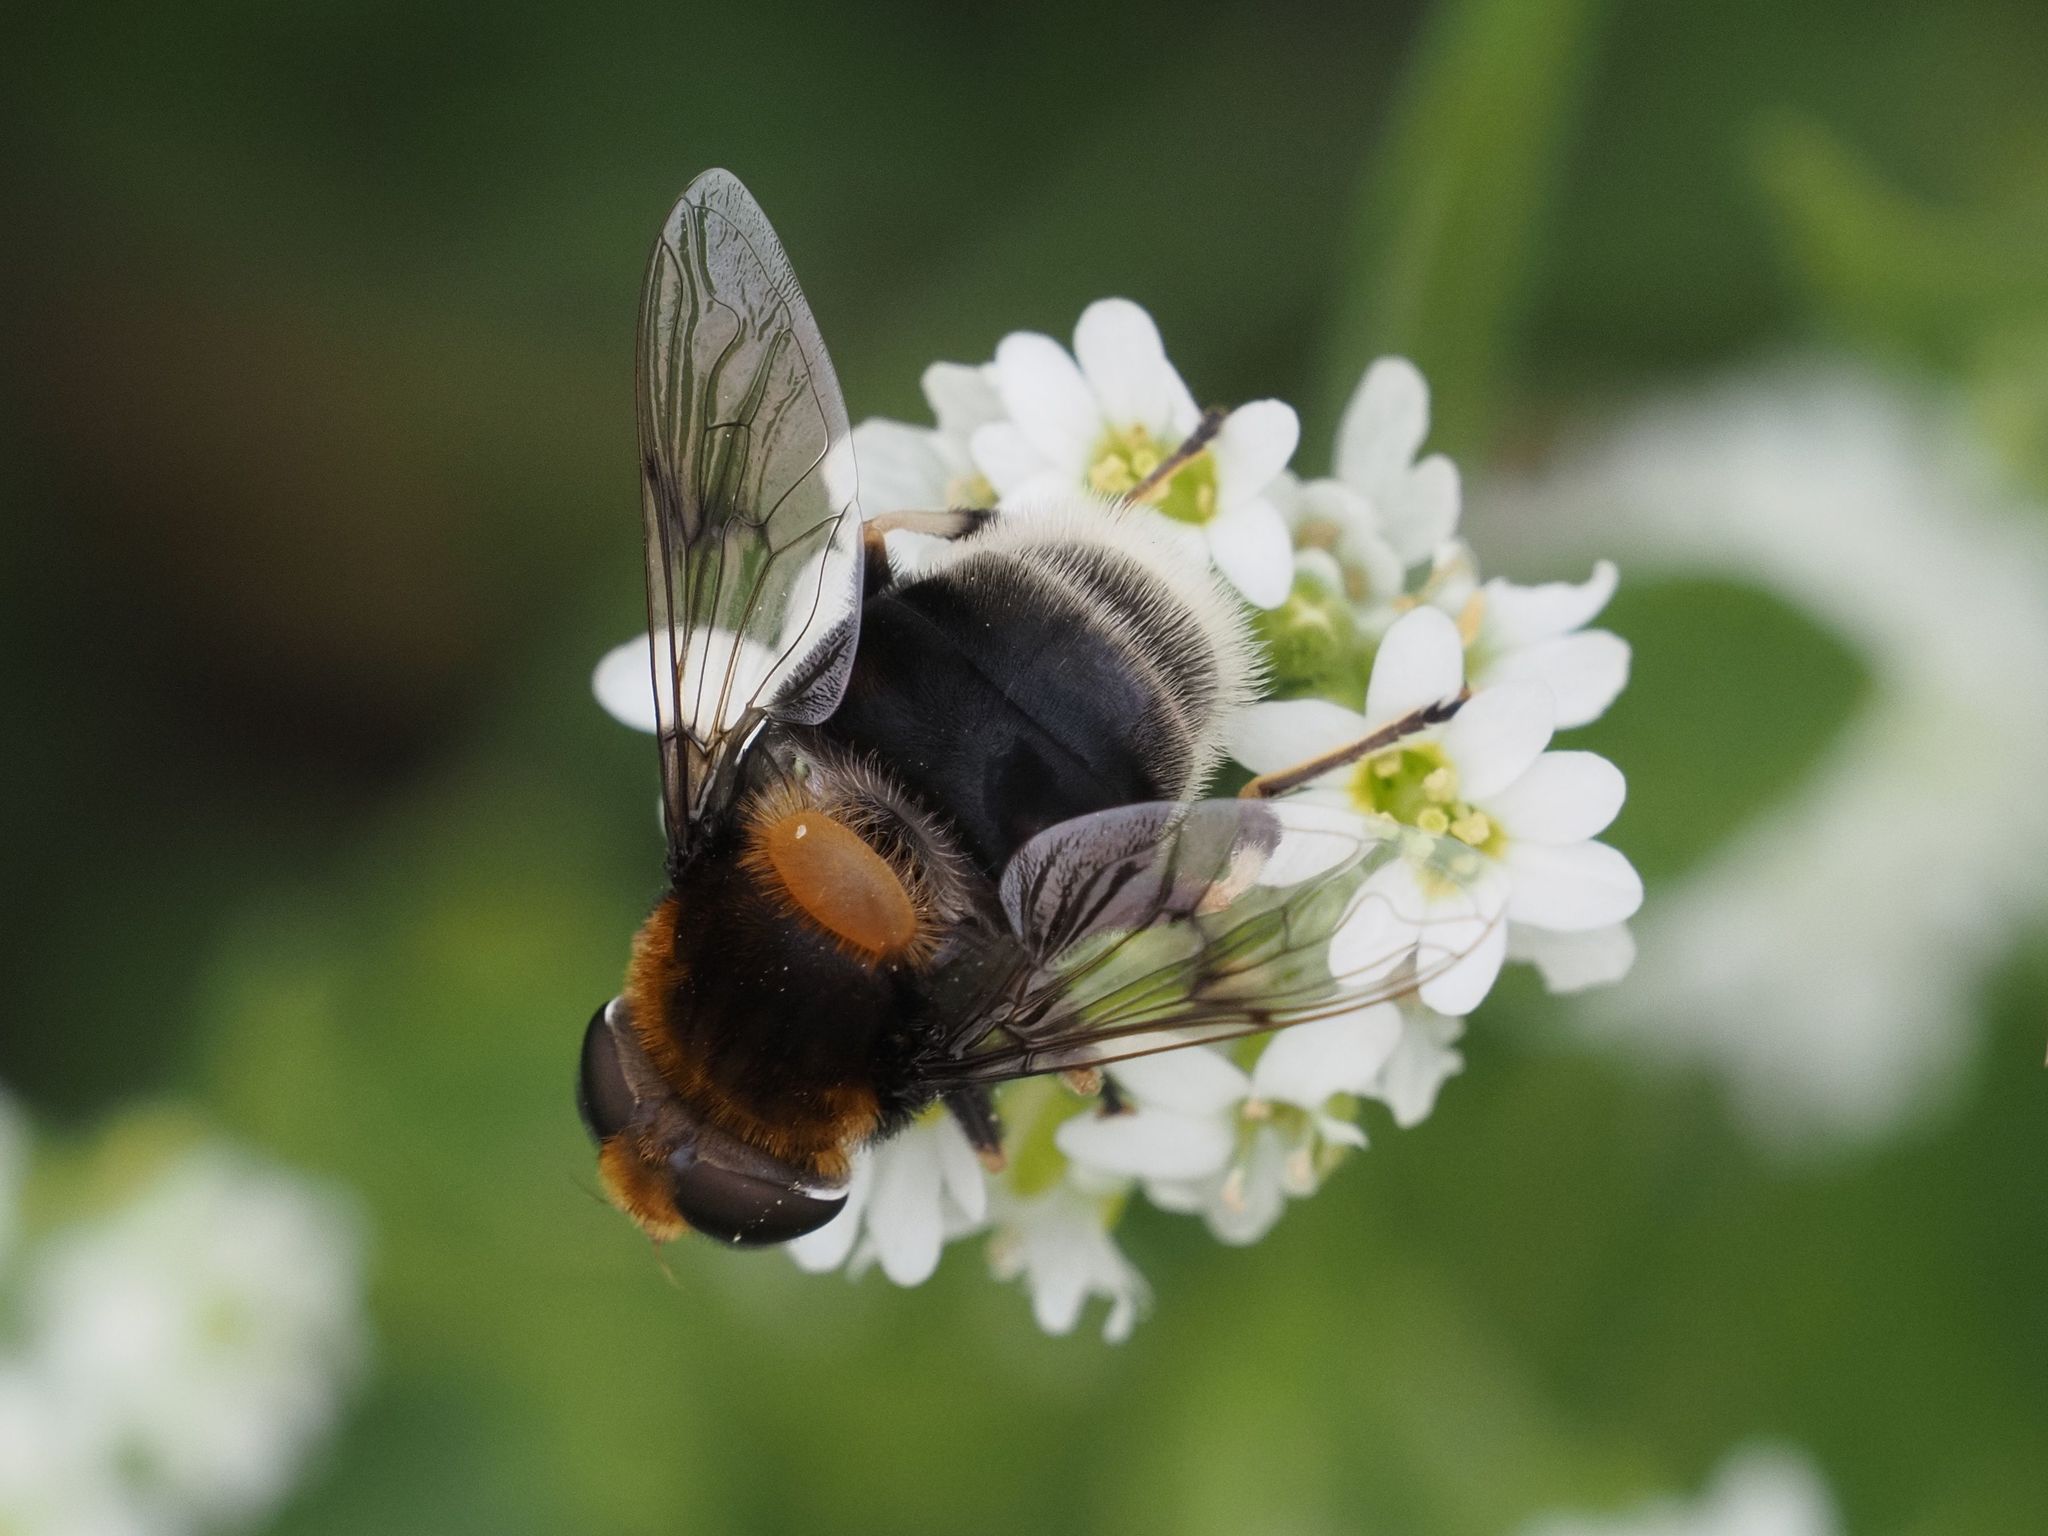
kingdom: Animalia
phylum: Arthropoda
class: Insecta
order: Diptera
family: Syrphidae
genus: Eristalis
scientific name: Eristalis intricaria
